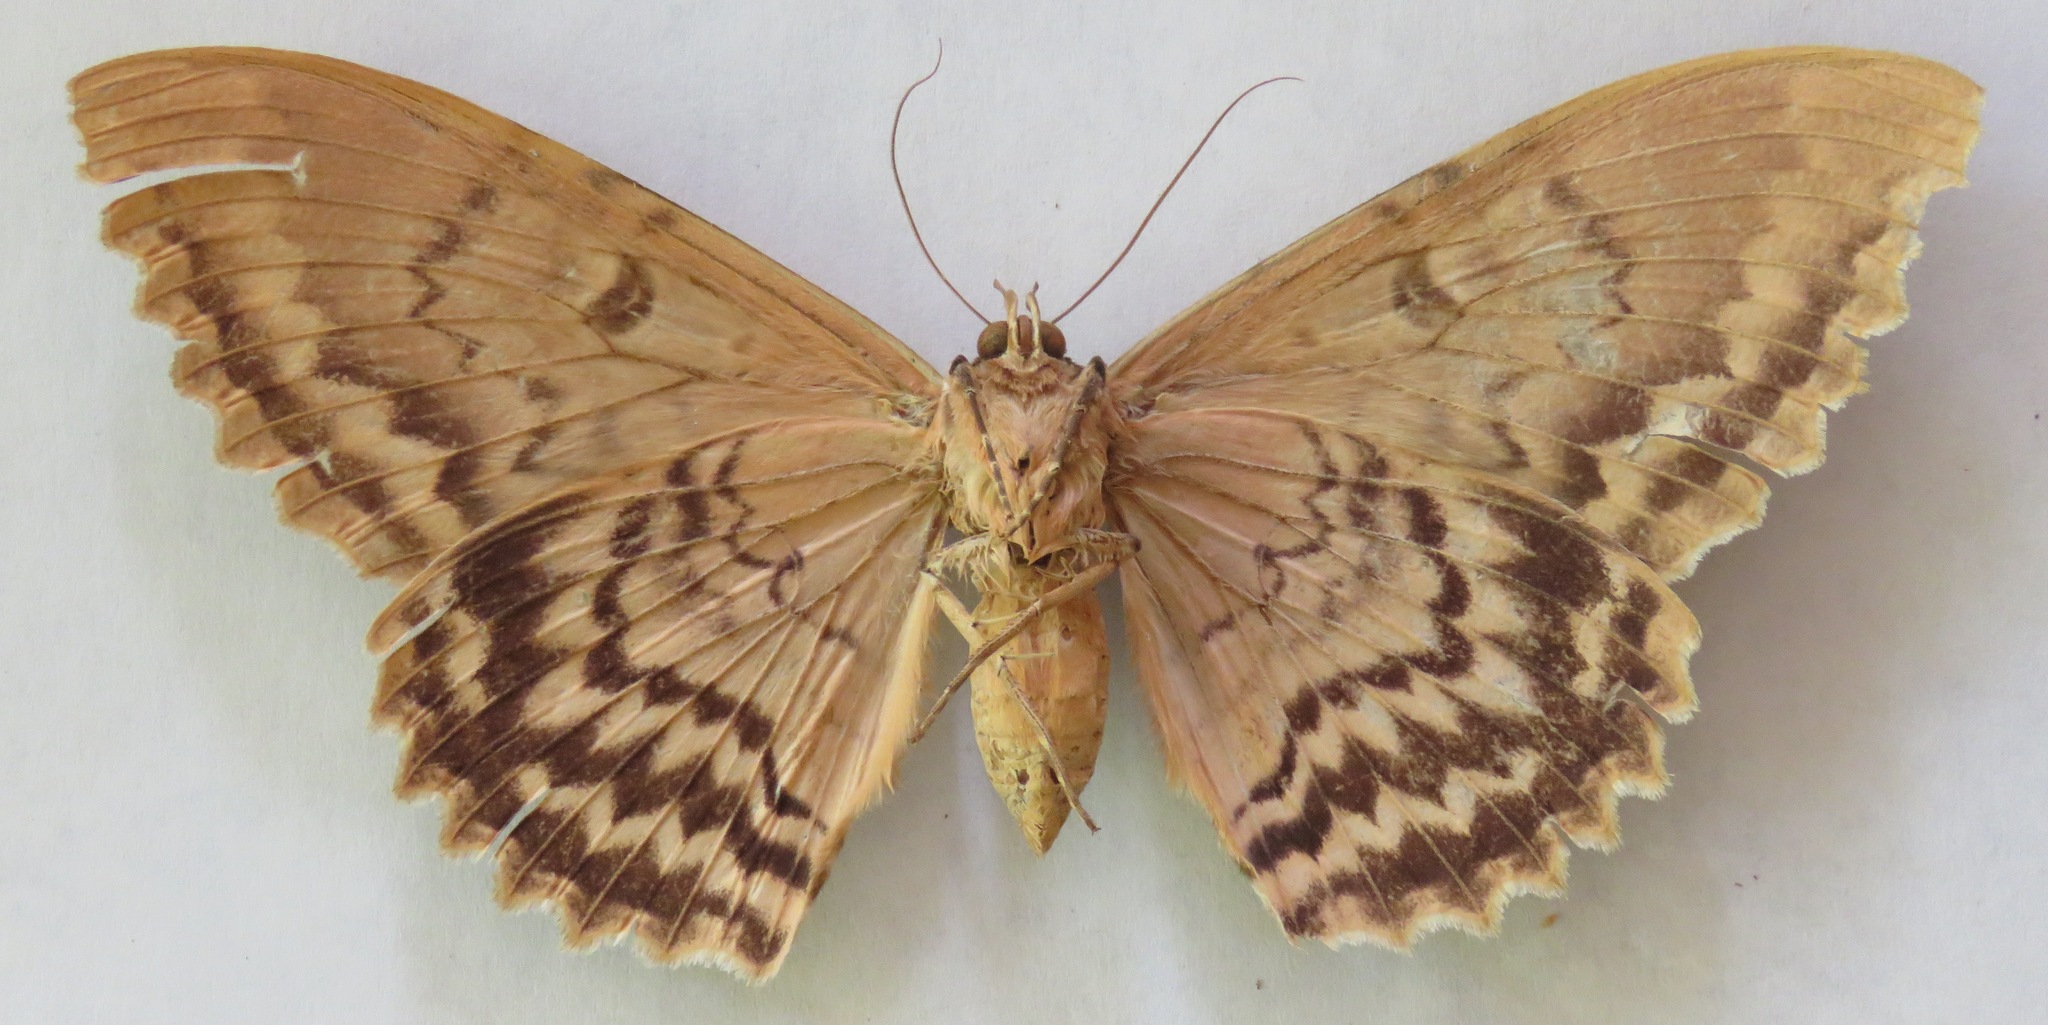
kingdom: Animalia
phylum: Arthropoda
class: Insecta
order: Lepidoptera
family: Erebidae
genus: Thysania
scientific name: Thysania zenobia
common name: Owl moth
